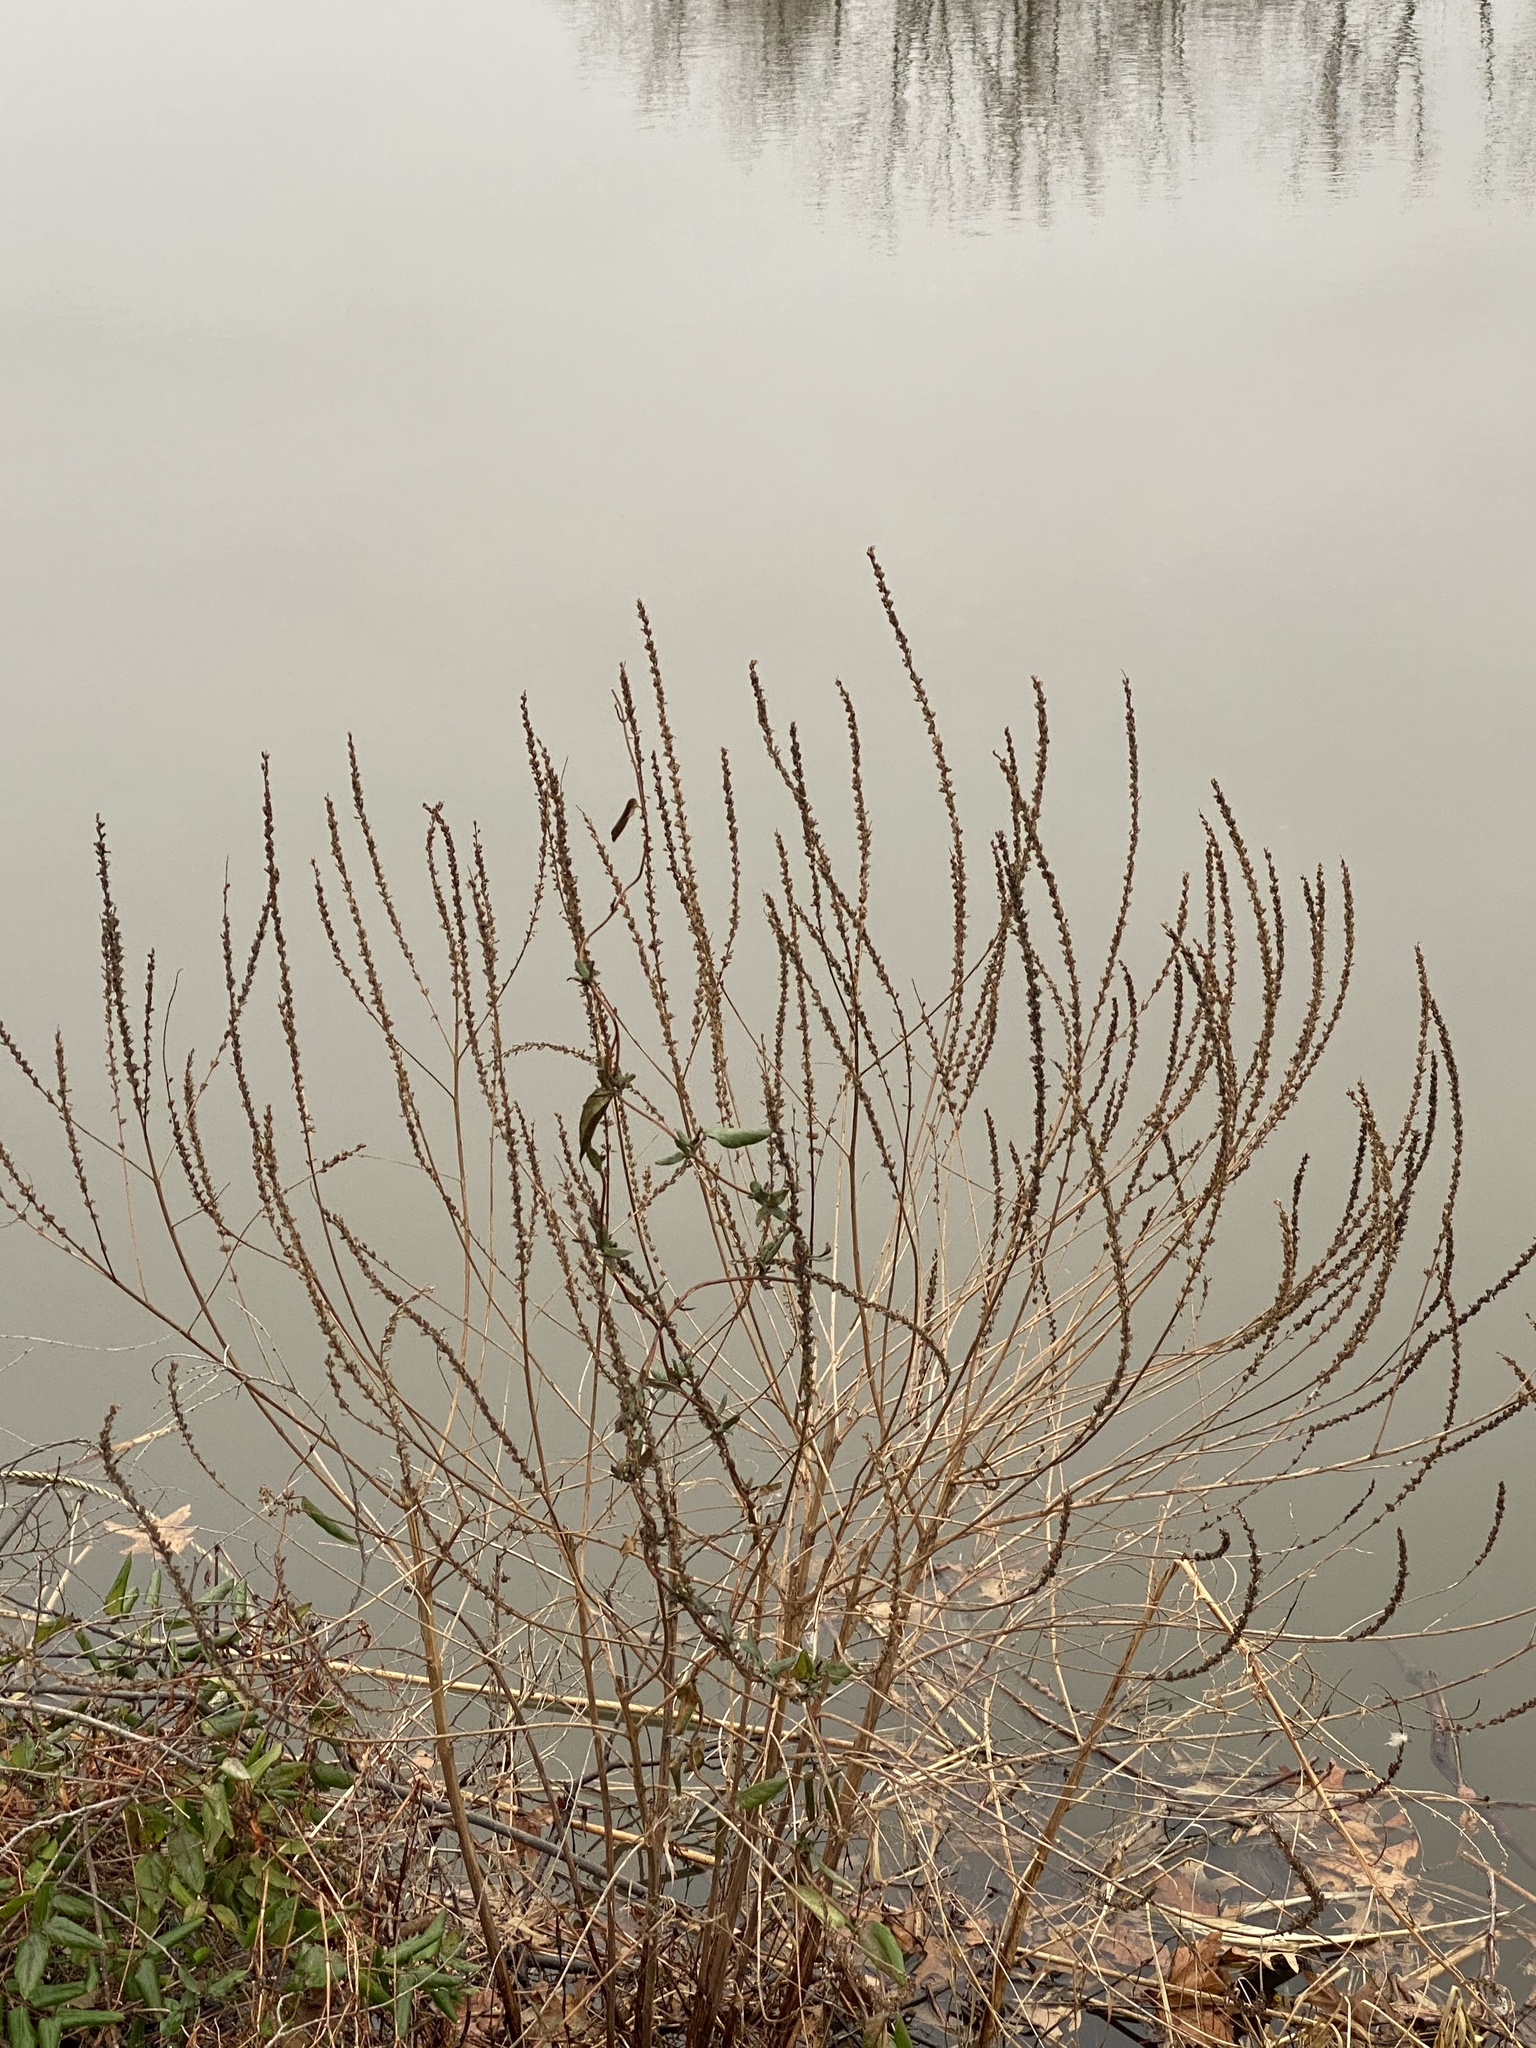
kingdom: Plantae
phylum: Tracheophyta
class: Magnoliopsida
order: Lamiales
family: Verbenaceae
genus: Verbena
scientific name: Verbena hastata
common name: American blue vervain
